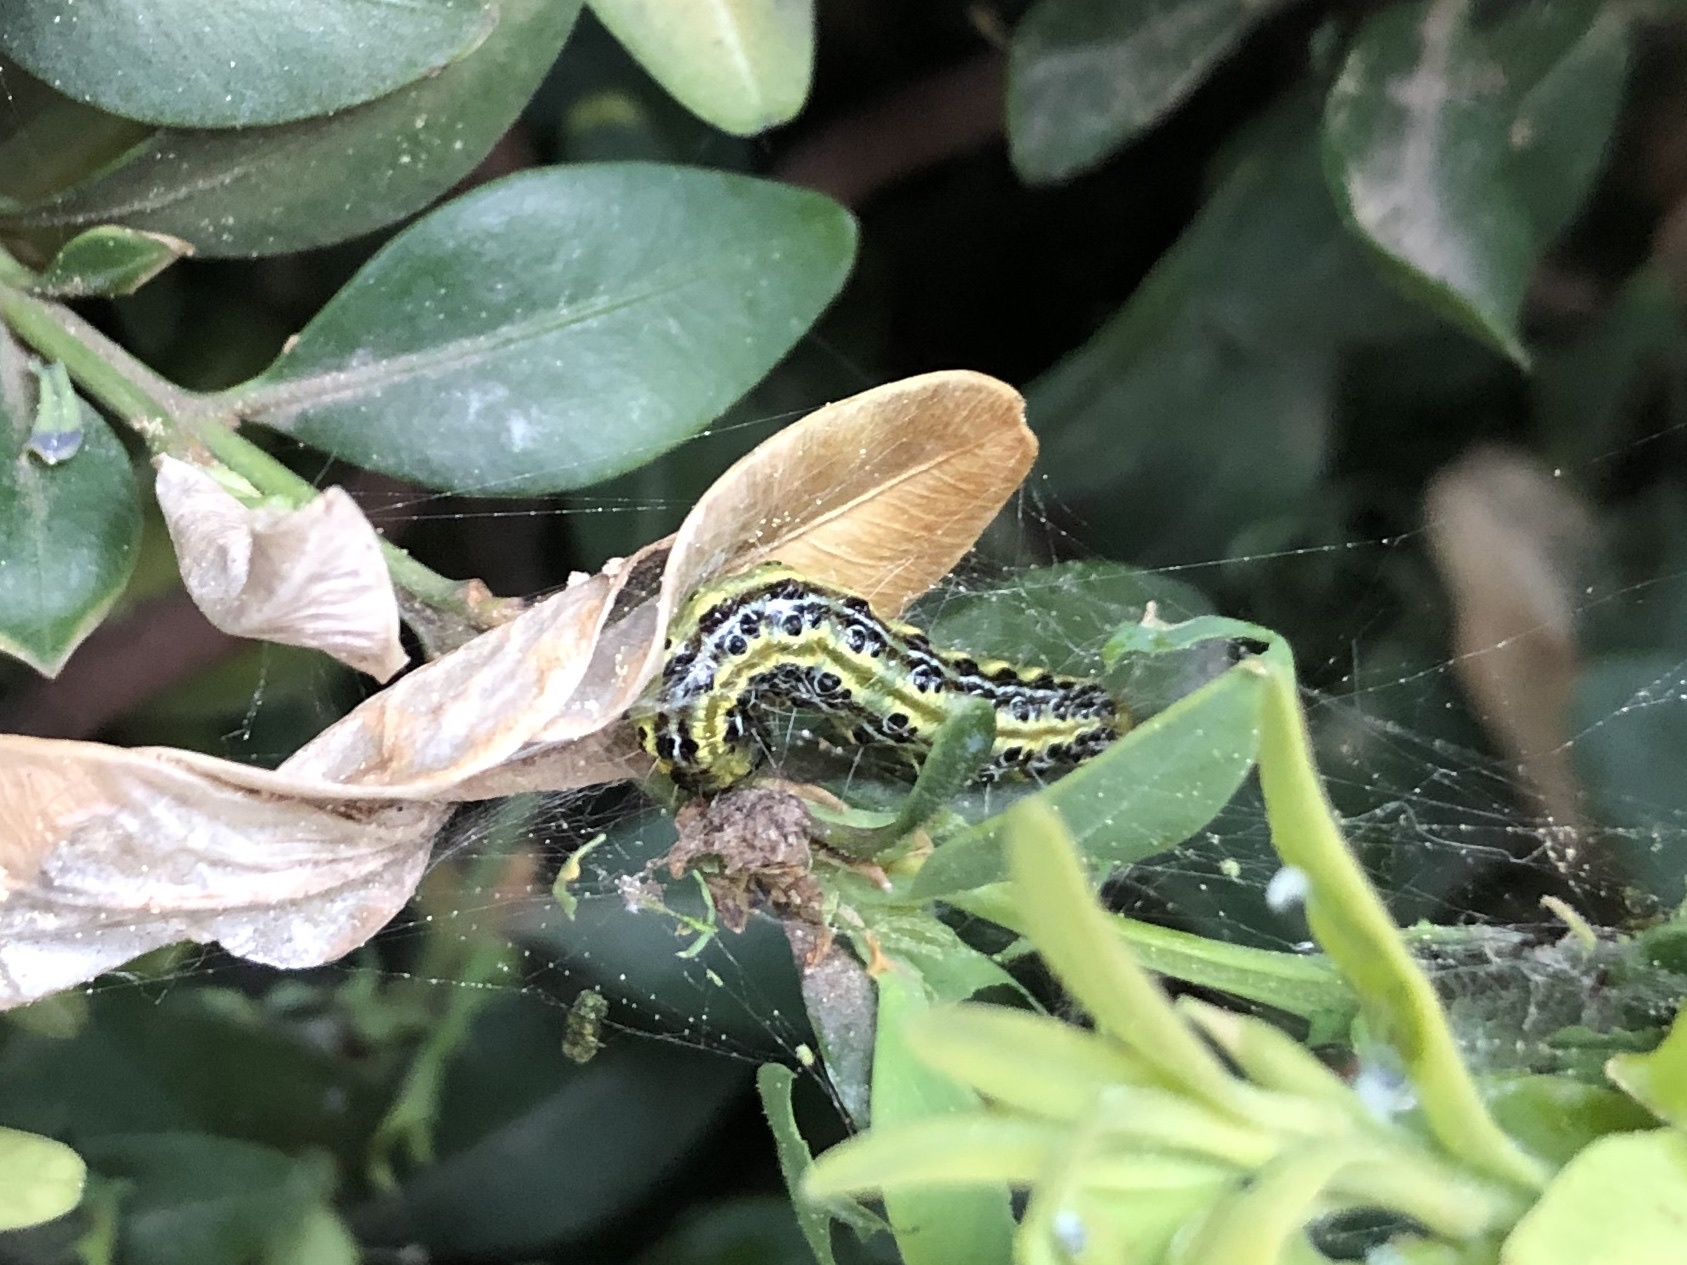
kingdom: Animalia
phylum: Arthropoda
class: Insecta
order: Lepidoptera
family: Crambidae
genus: Cydalima
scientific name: Cydalima perspectalis
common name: Box tree moth
